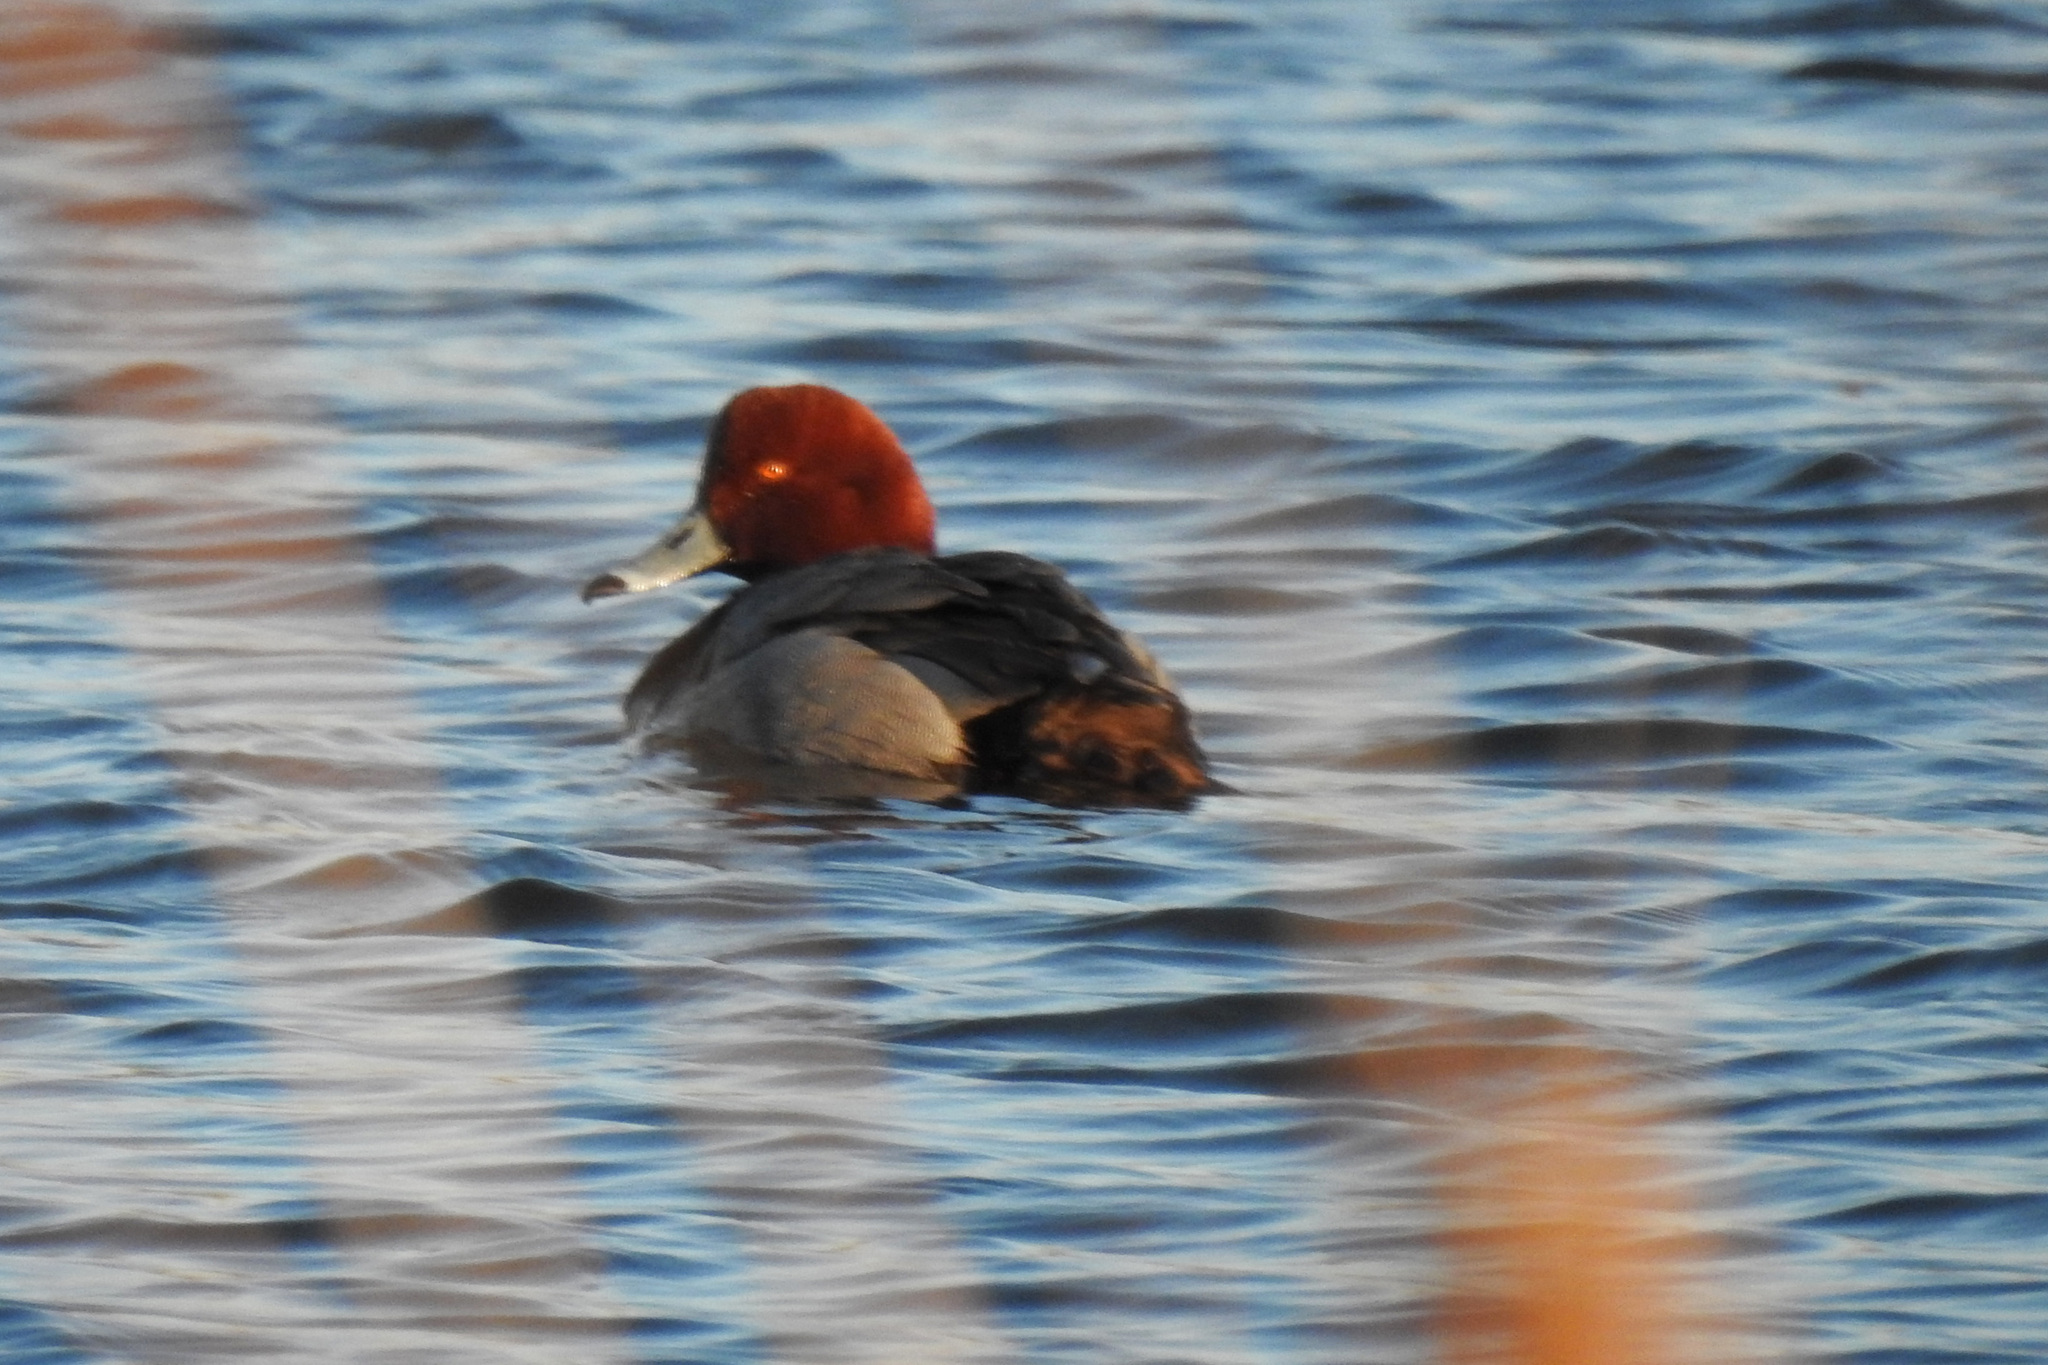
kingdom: Animalia
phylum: Chordata
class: Aves
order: Anseriformes
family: Anatidae
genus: Aythya
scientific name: Aythya americana
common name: Redhead
